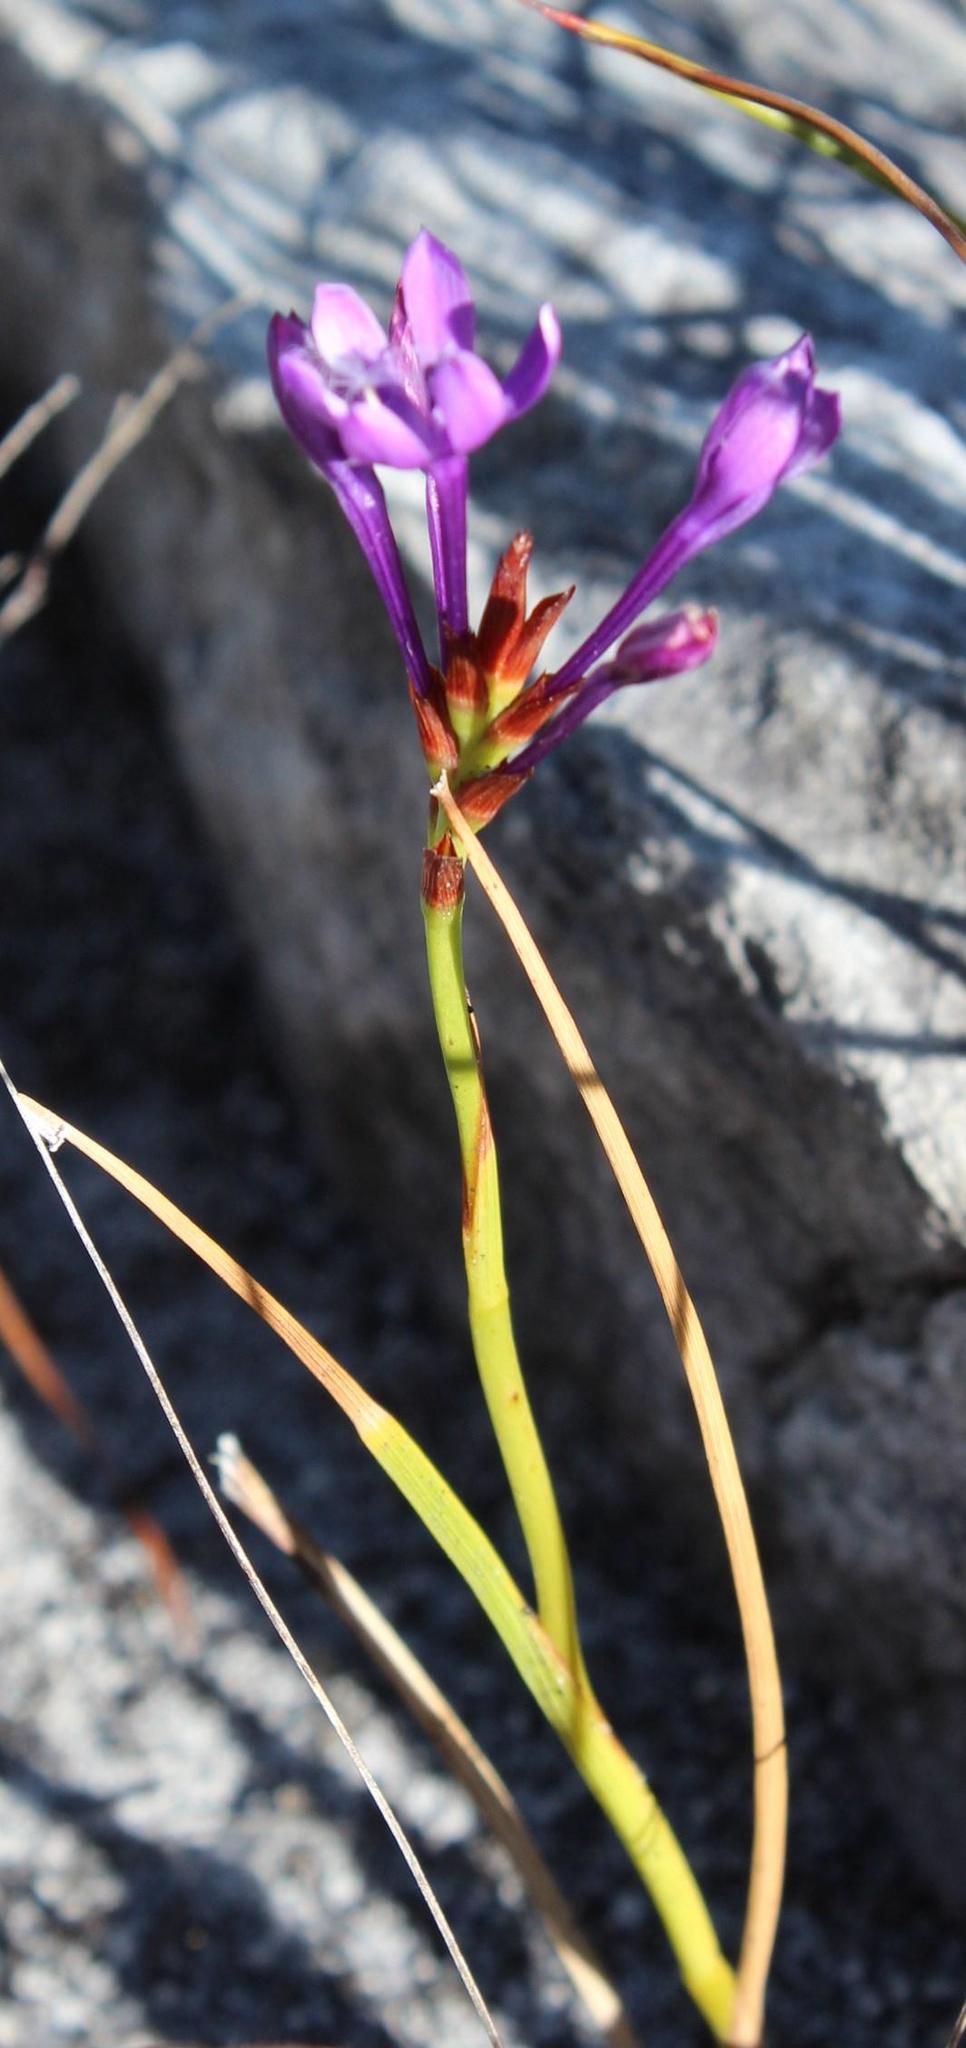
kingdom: Plantae
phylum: Tracheophyta
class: Liliopsida
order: Asparagales
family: Iridaceae
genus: Thereianthus
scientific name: Thereianthus spicatus
